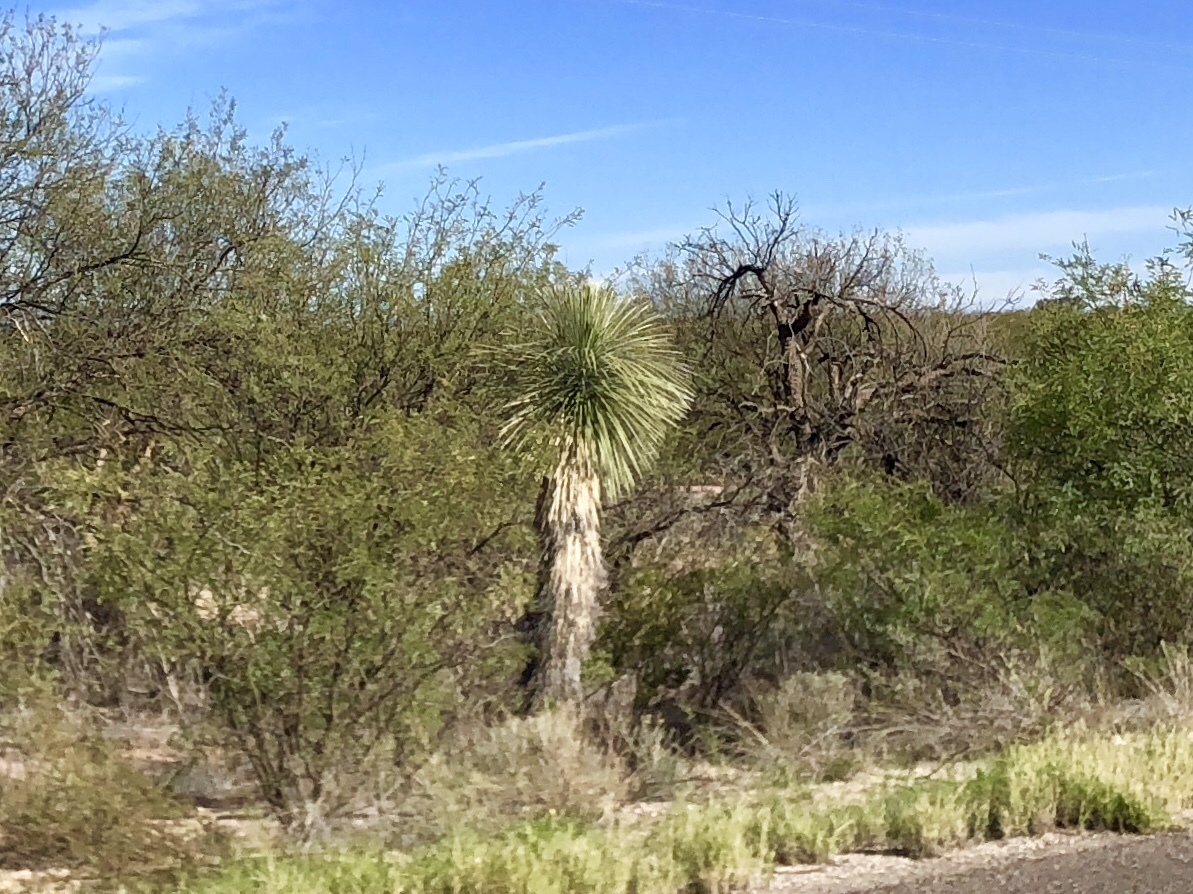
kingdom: Plantae
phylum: Tracheophyta
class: Liliopsida
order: Asparagales
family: Asparagaceae
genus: Yucca
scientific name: Yucca elata
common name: Palmella
